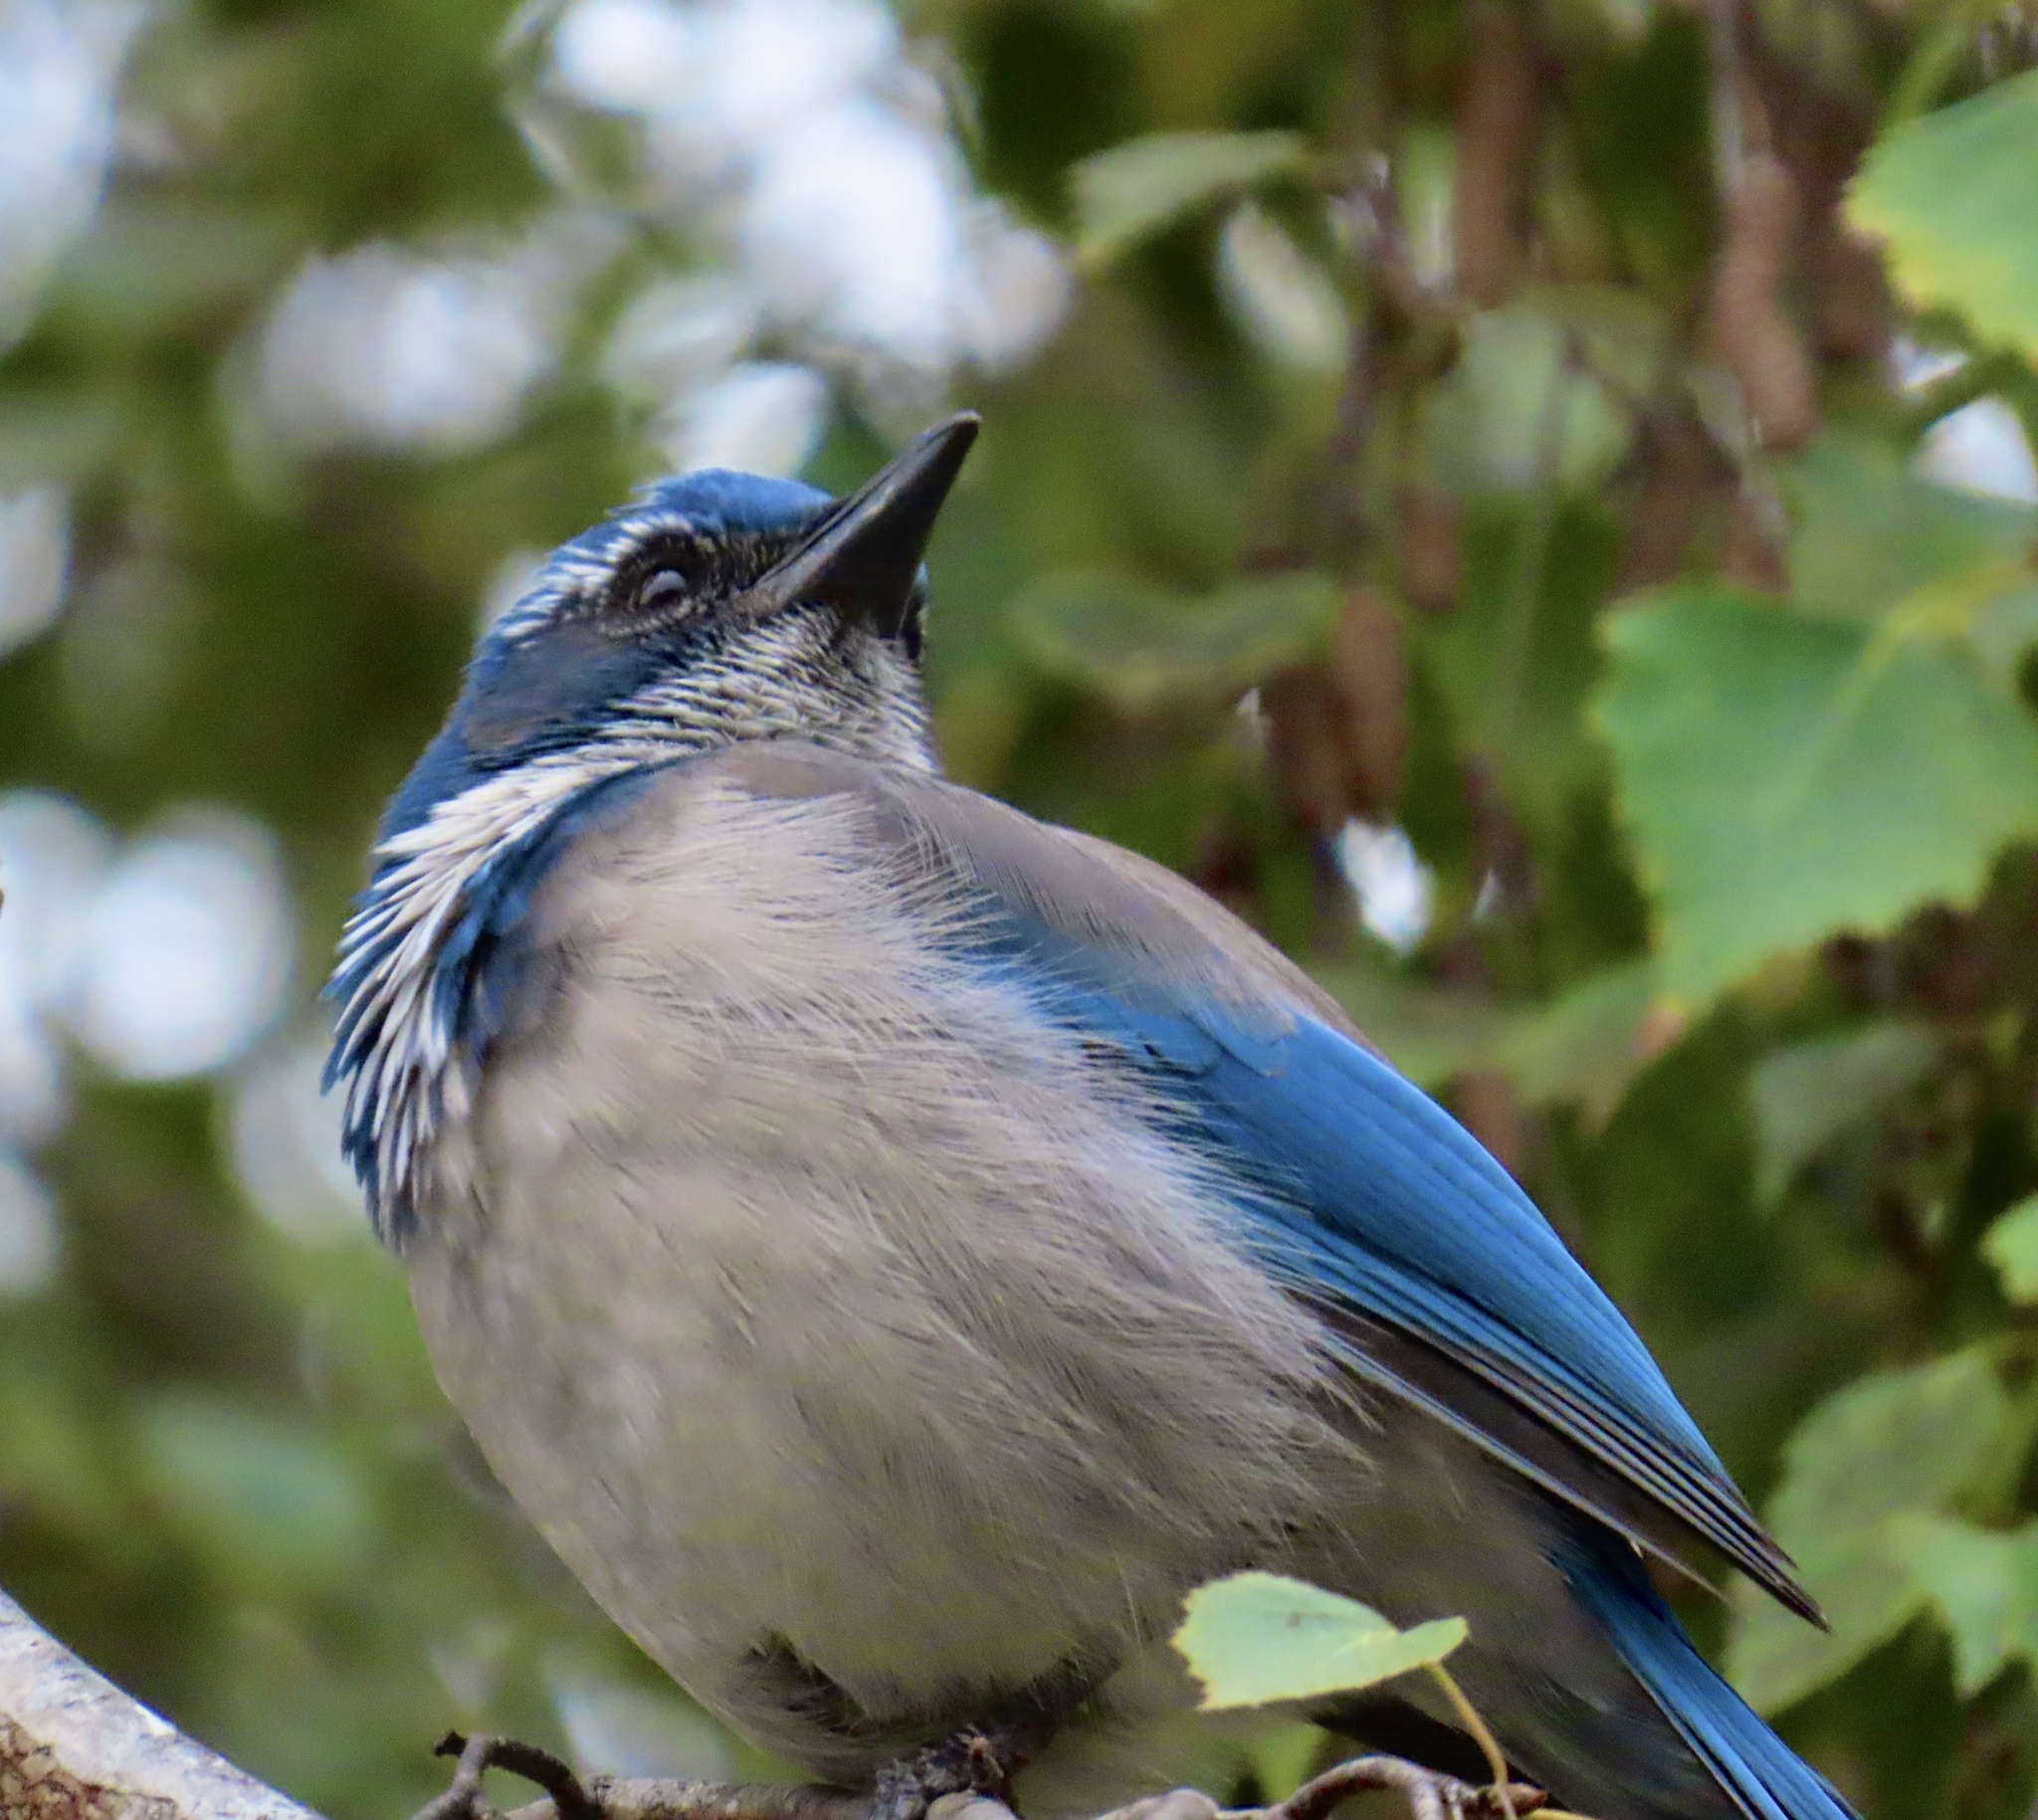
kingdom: Animalia
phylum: Chordata
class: Aves
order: Passeriformes
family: Corvidae
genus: Aphelocoma
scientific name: Aphelocoma californica
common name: California scrub-jay
